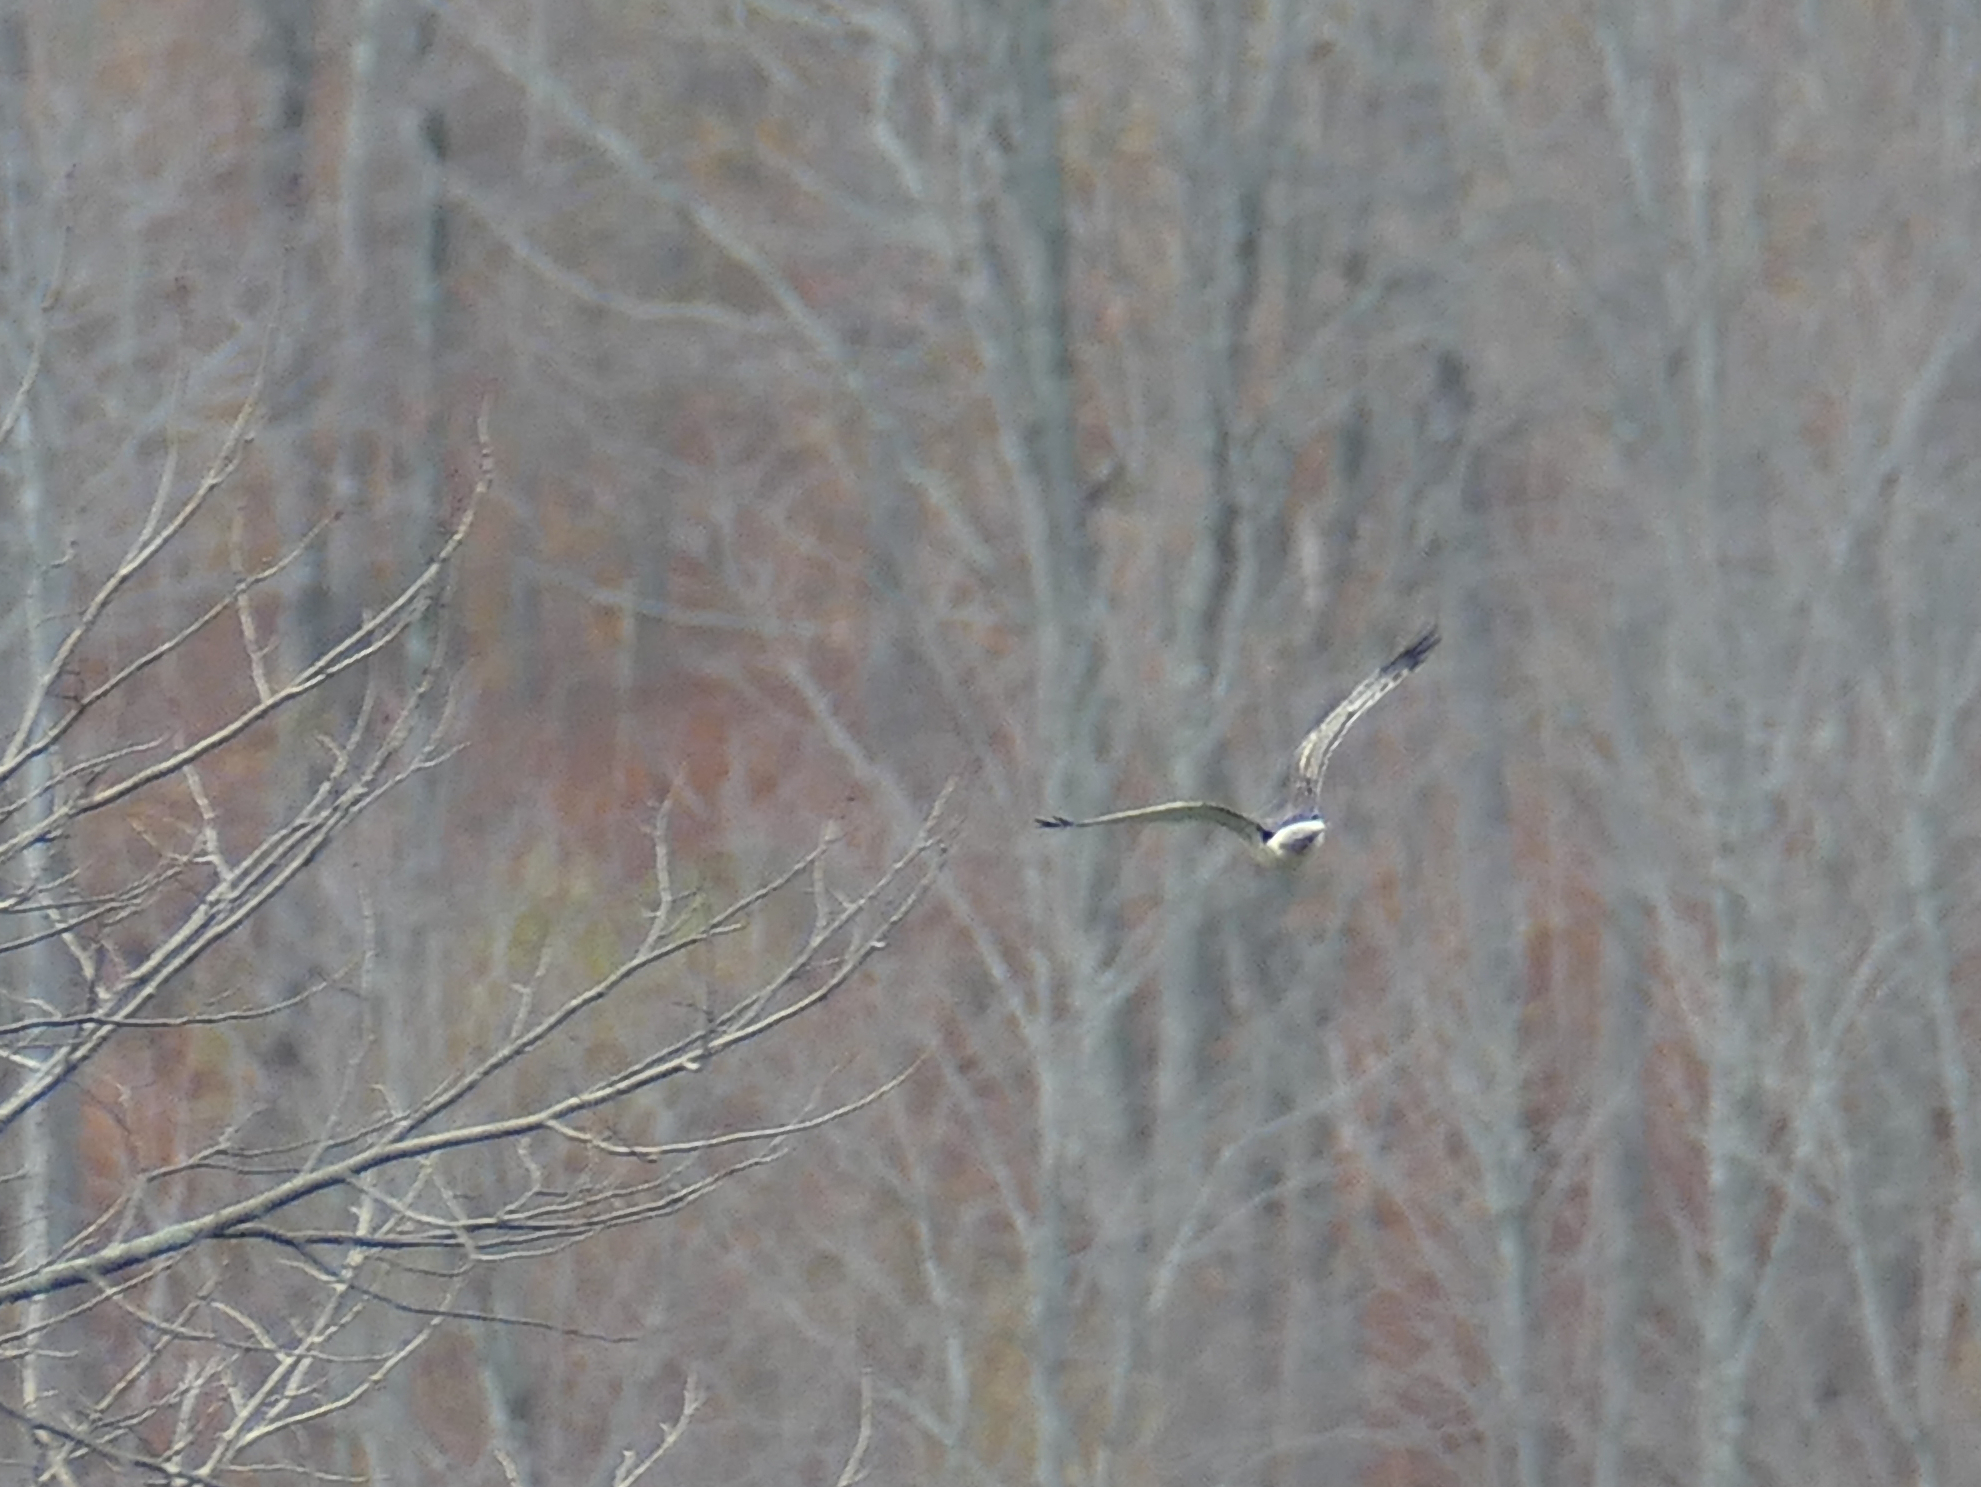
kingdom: Animalia
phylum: Chordata
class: Aves
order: Accipitriformes
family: Accipitridae
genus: Circus
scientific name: Circus cyaneus
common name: Hen harrier
